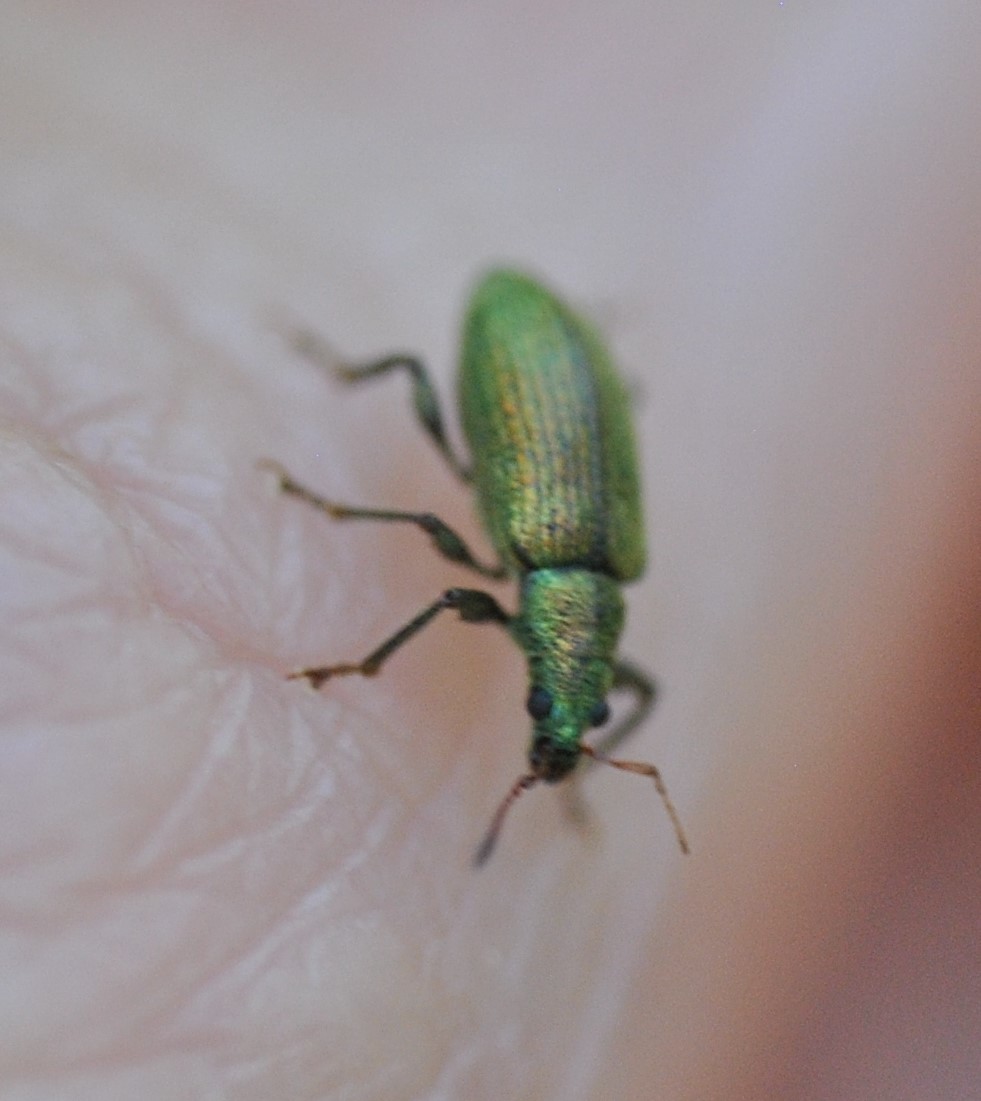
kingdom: Animalia
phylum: Arthropoda
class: Insecta
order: Coleoptera
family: Curculionidae
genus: Parascythopus
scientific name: Parascythopus intrusus
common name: Weevil
